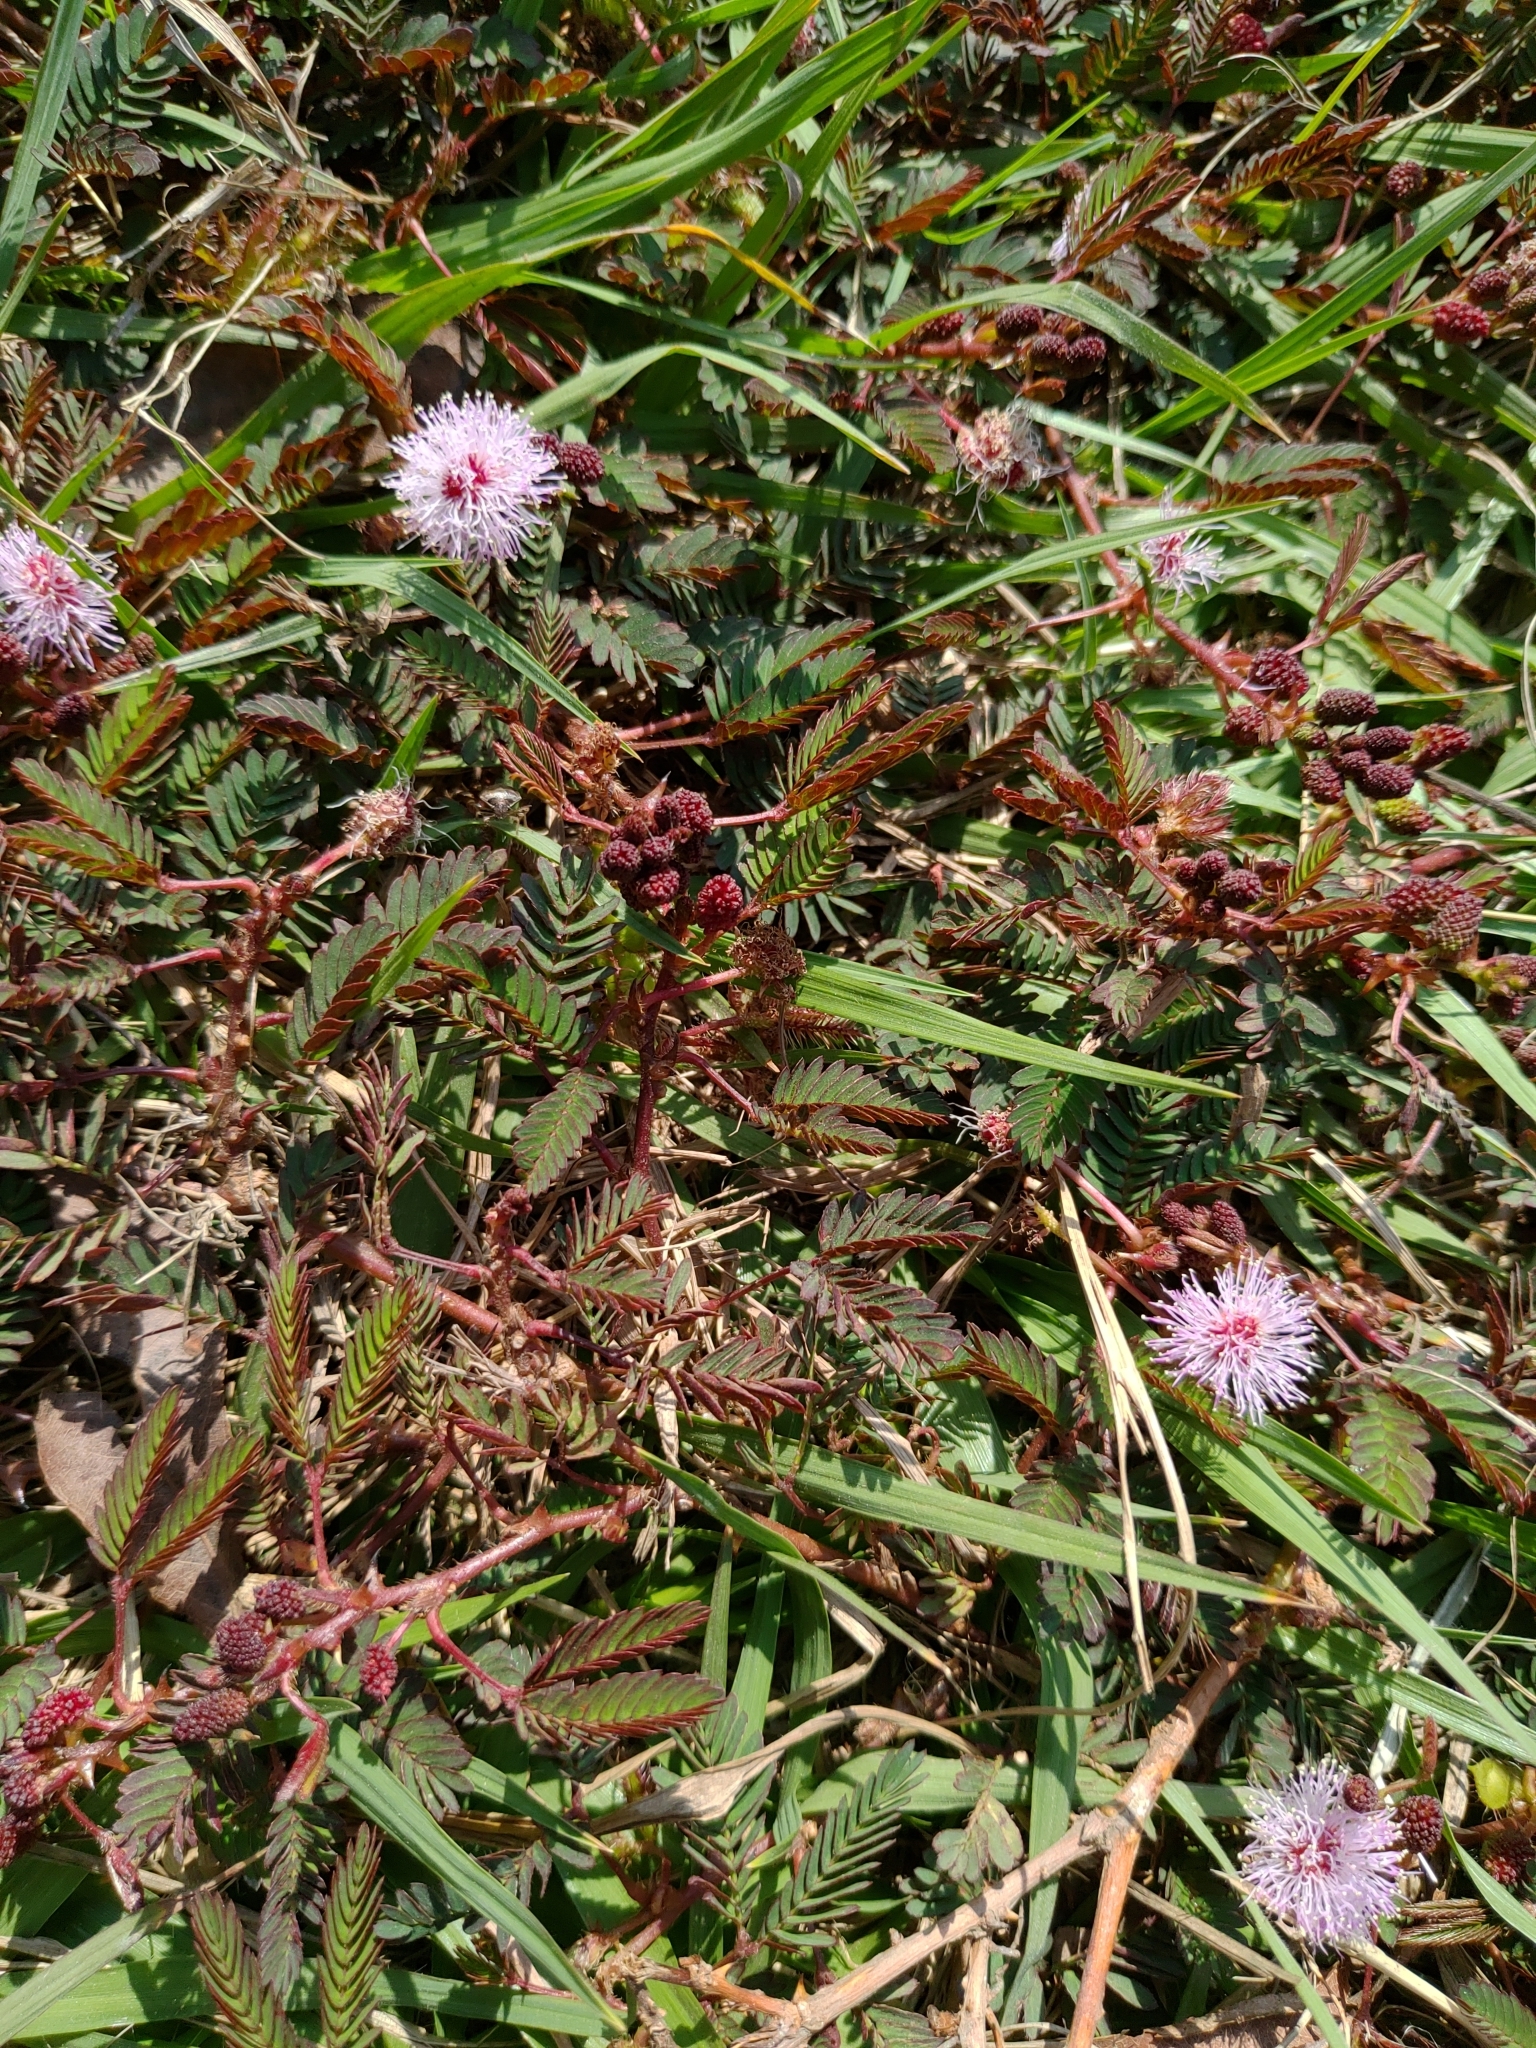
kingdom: Plantae
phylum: Tracheophyta
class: Magnoliopsida
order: Fabales
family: Fabaceae
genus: Mimosa
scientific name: Mimosa pudica
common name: Sensitive plant
